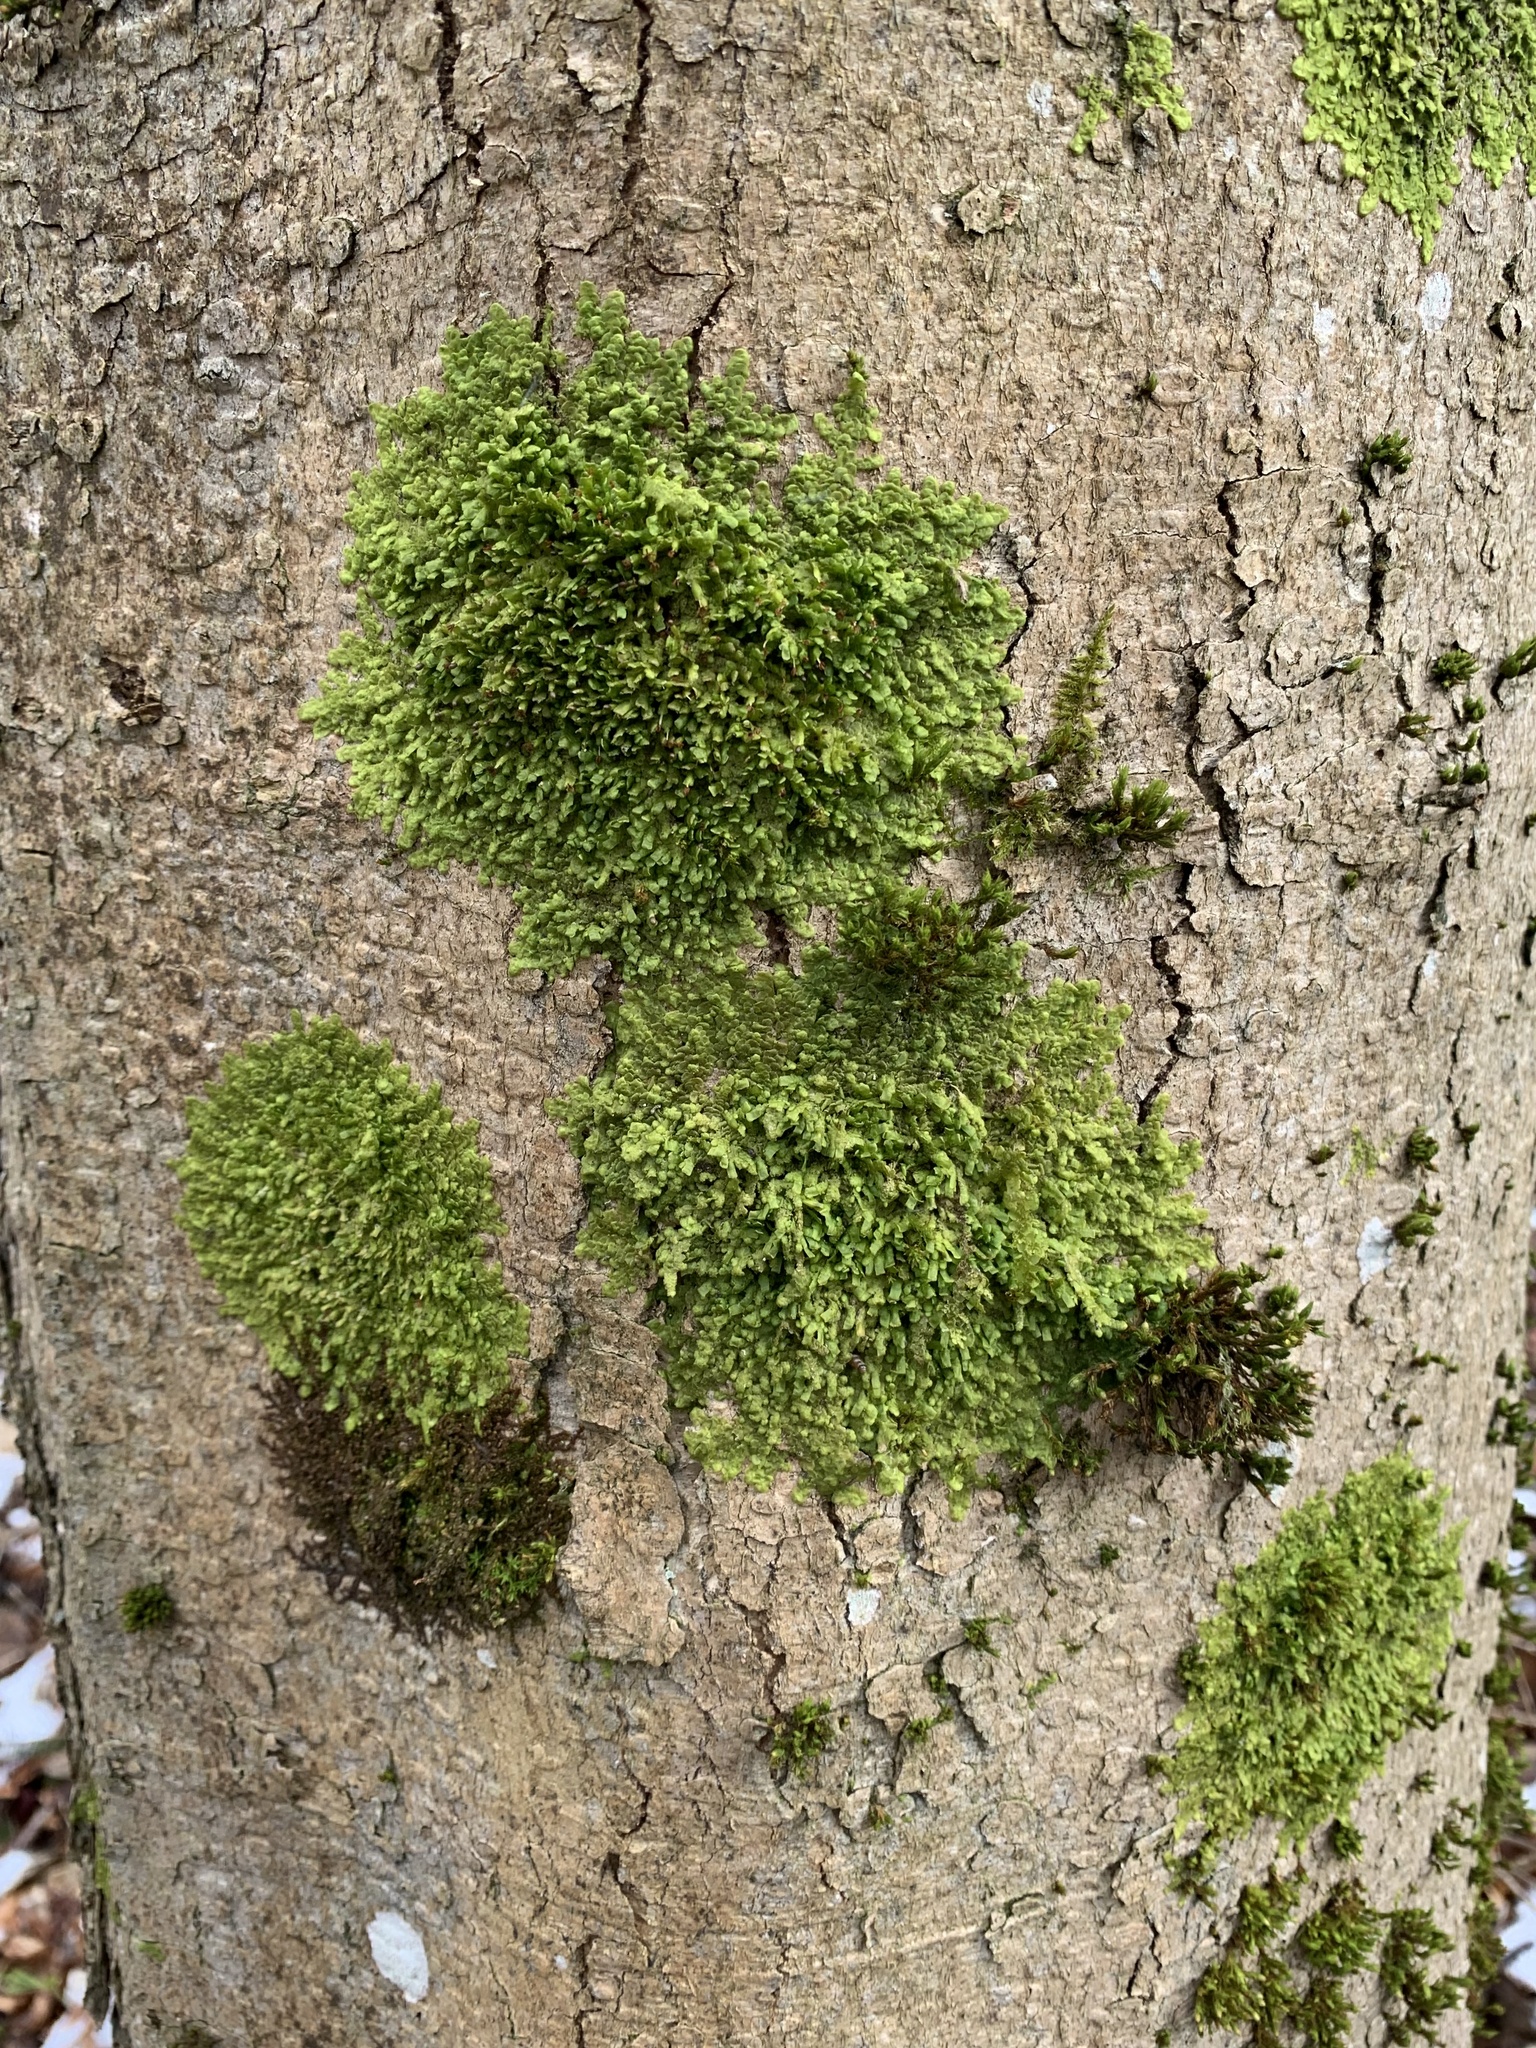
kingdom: Plantae
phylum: Marchantiophyta
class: Jungermanniopsida
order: Porellales
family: Radulaceae
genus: Radula
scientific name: Radula complanata
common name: Flat-leaved scalewort
